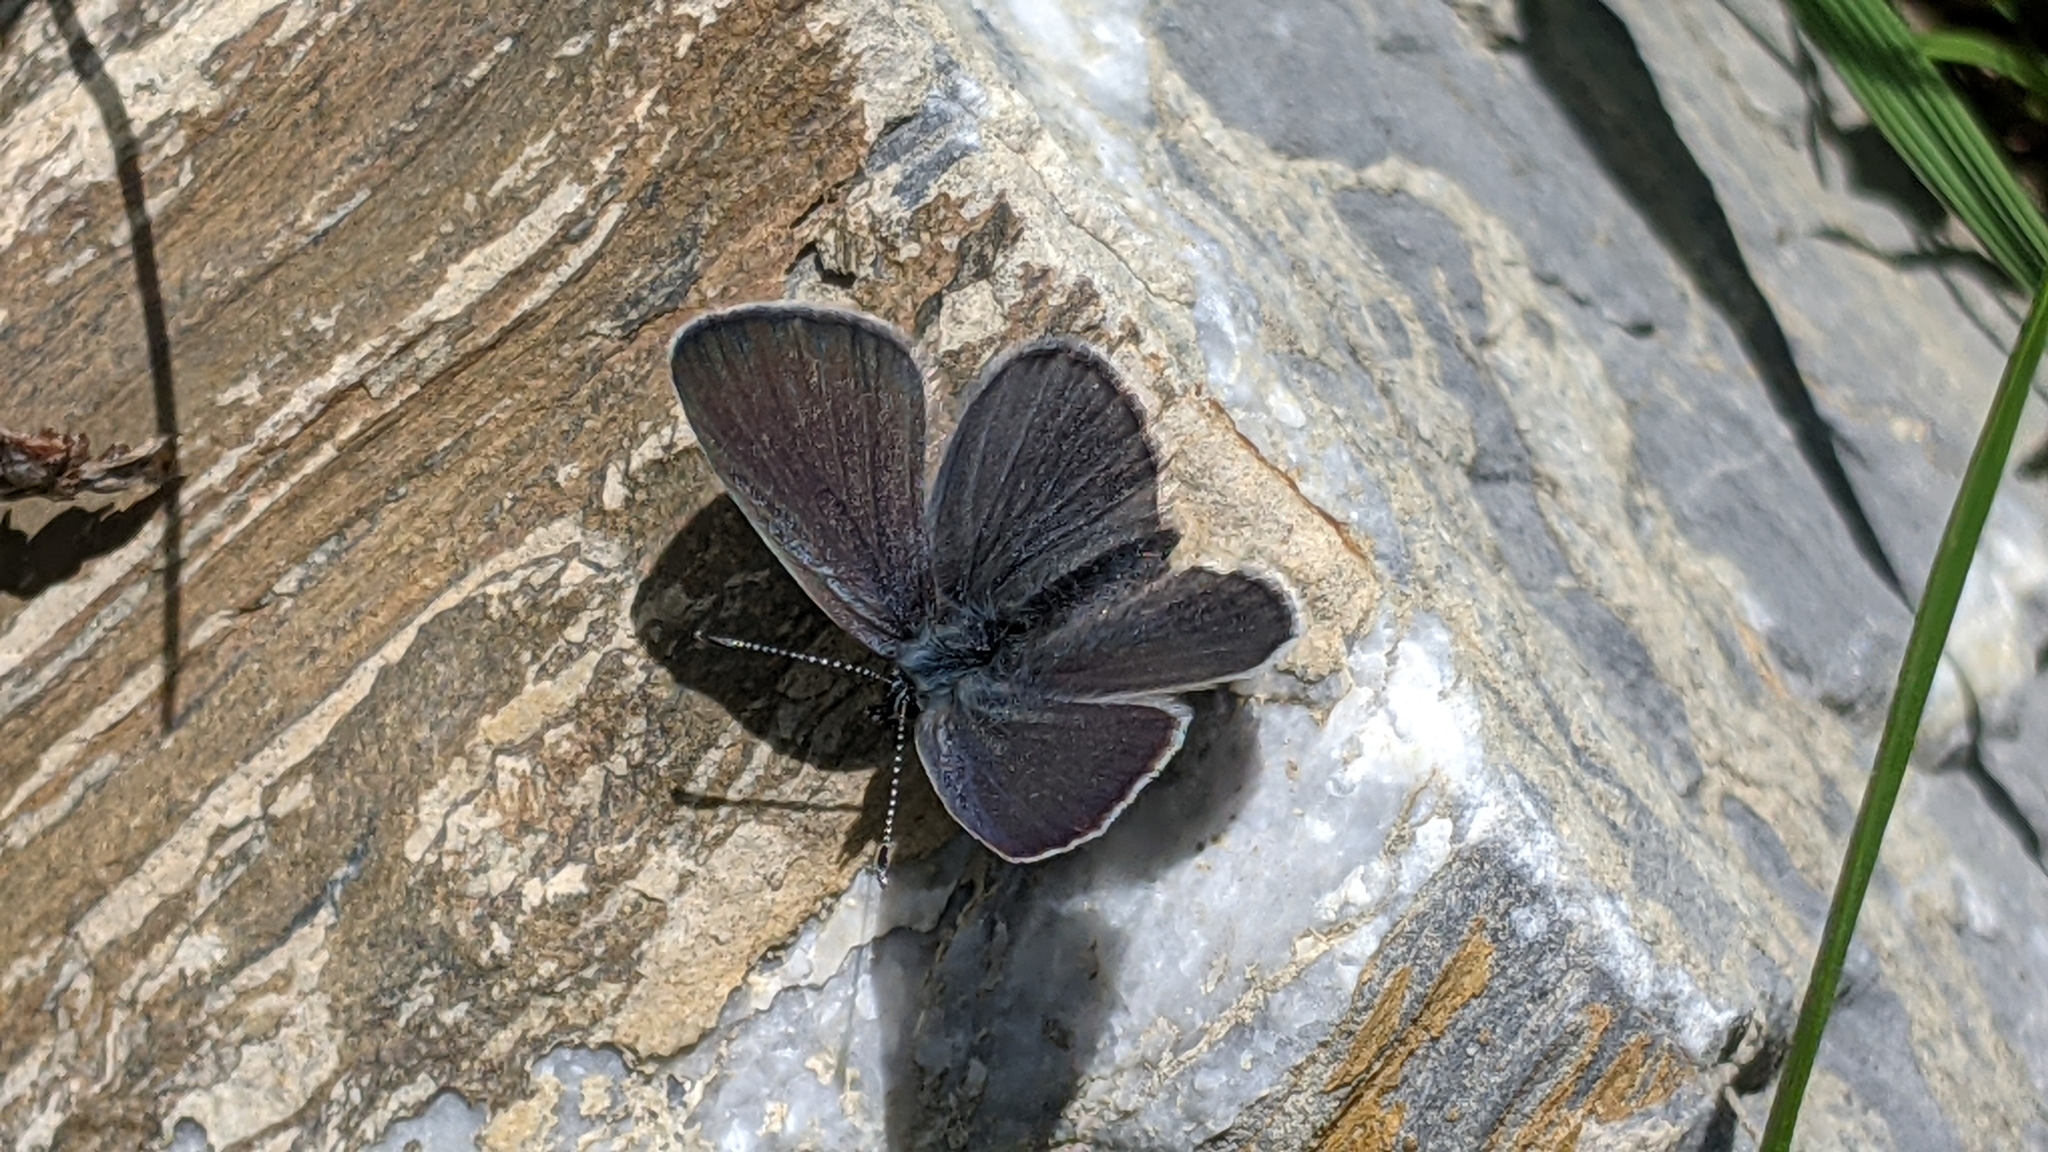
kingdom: Animalia
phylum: Arthropoda
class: Insecta
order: Lepidoptera
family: Lycaenidae
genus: Cupido
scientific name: Cupido minimus
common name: Small blue
